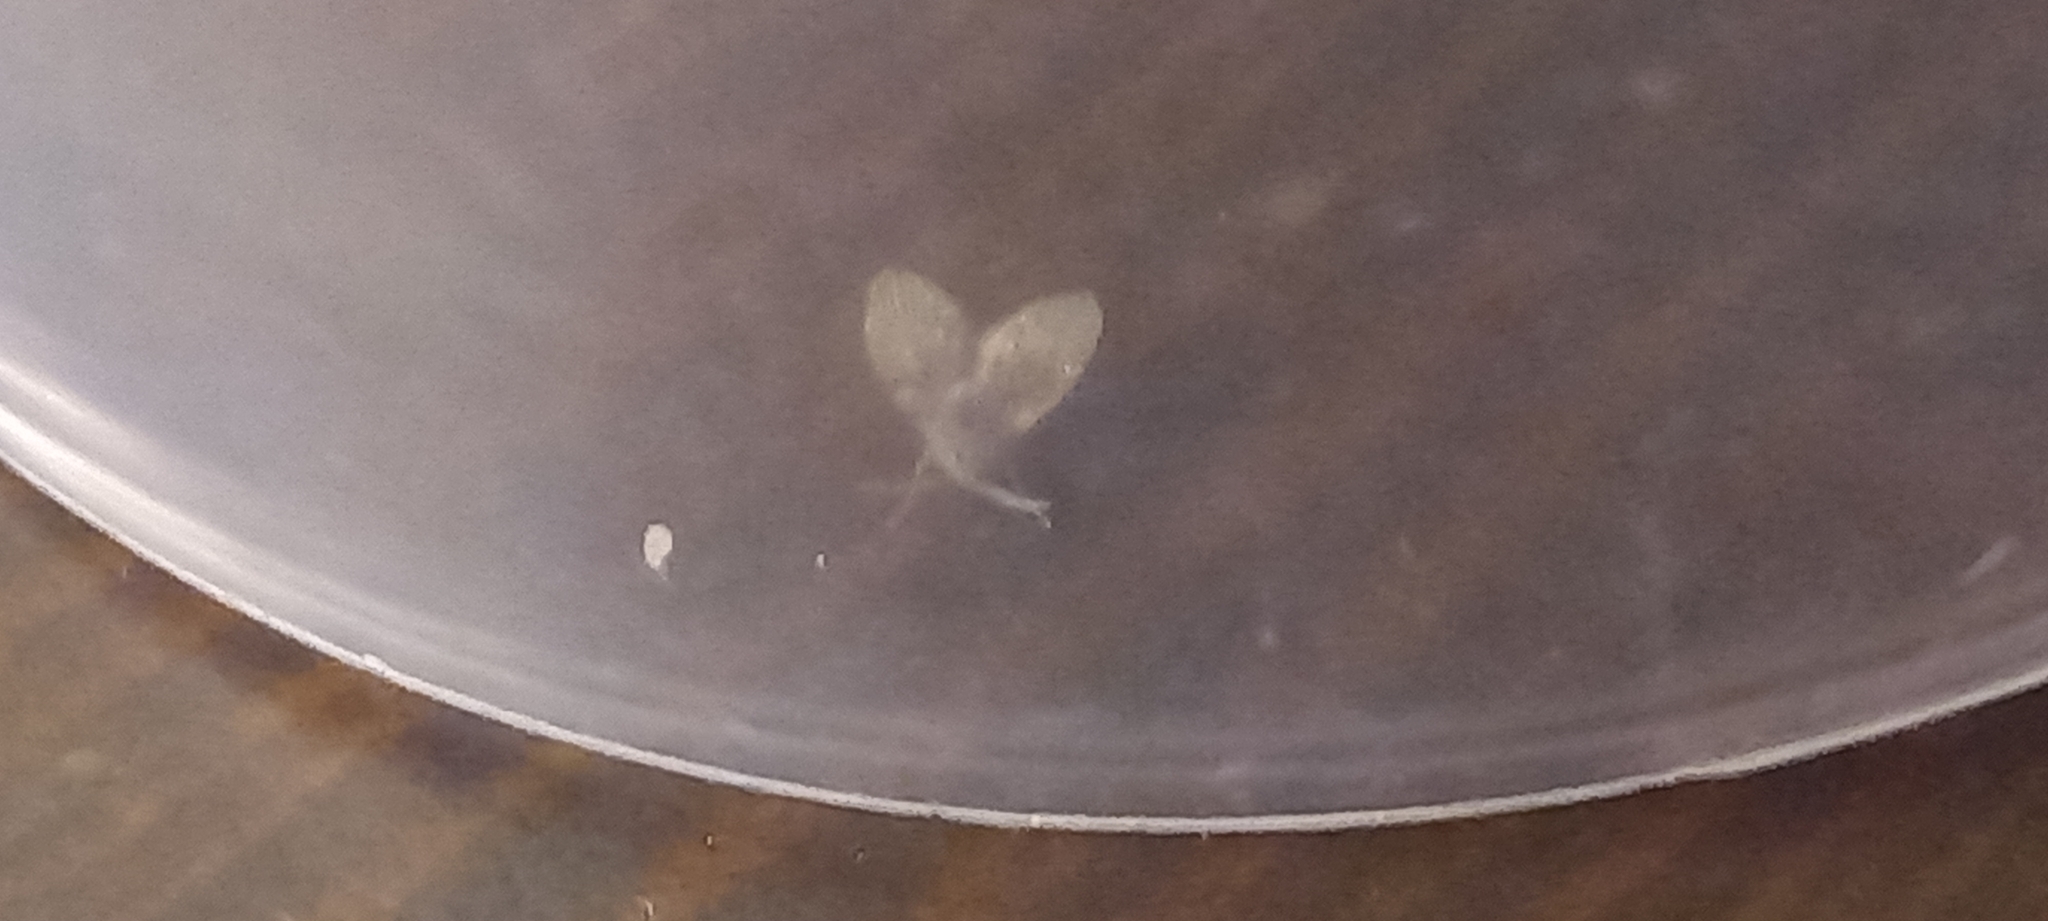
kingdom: Animalia
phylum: Arthropoda
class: Insecta
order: Diptera
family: Psychodidae
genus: Clogmia
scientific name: Clogmia albipunctatus
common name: White-spotted moth fly
